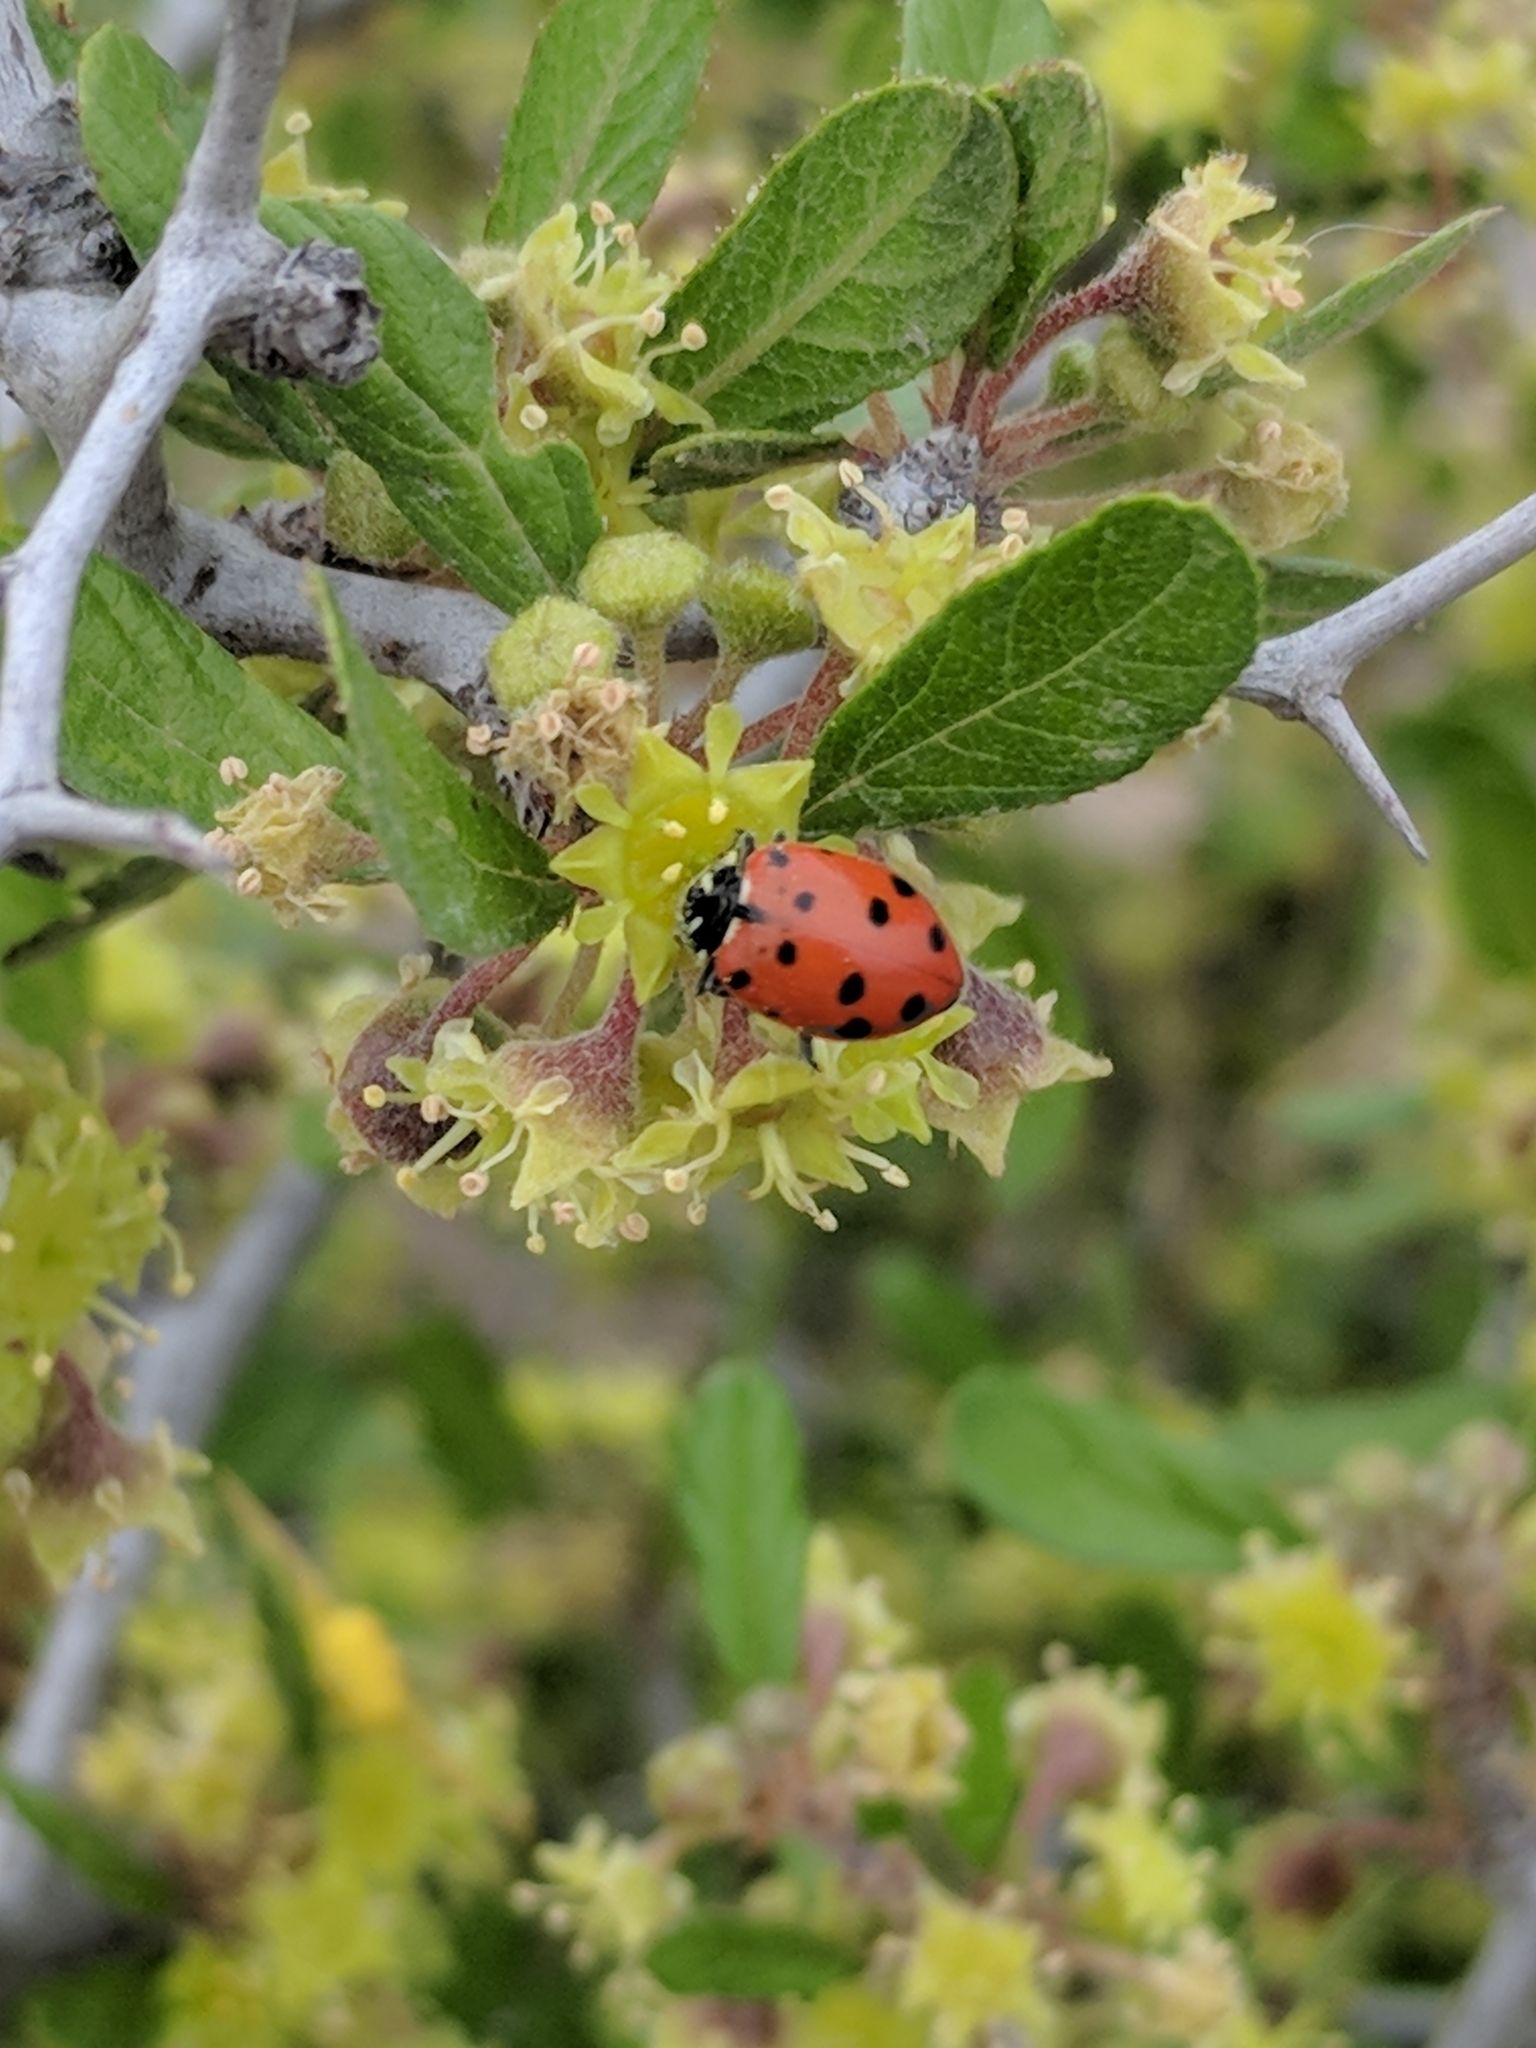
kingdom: Animalia
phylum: Arthropoda
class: Insecta
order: Coleoptera
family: Coccinellidae
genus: Hippodamia
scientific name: Hippodamia convergens
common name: Convergent lady beetle
